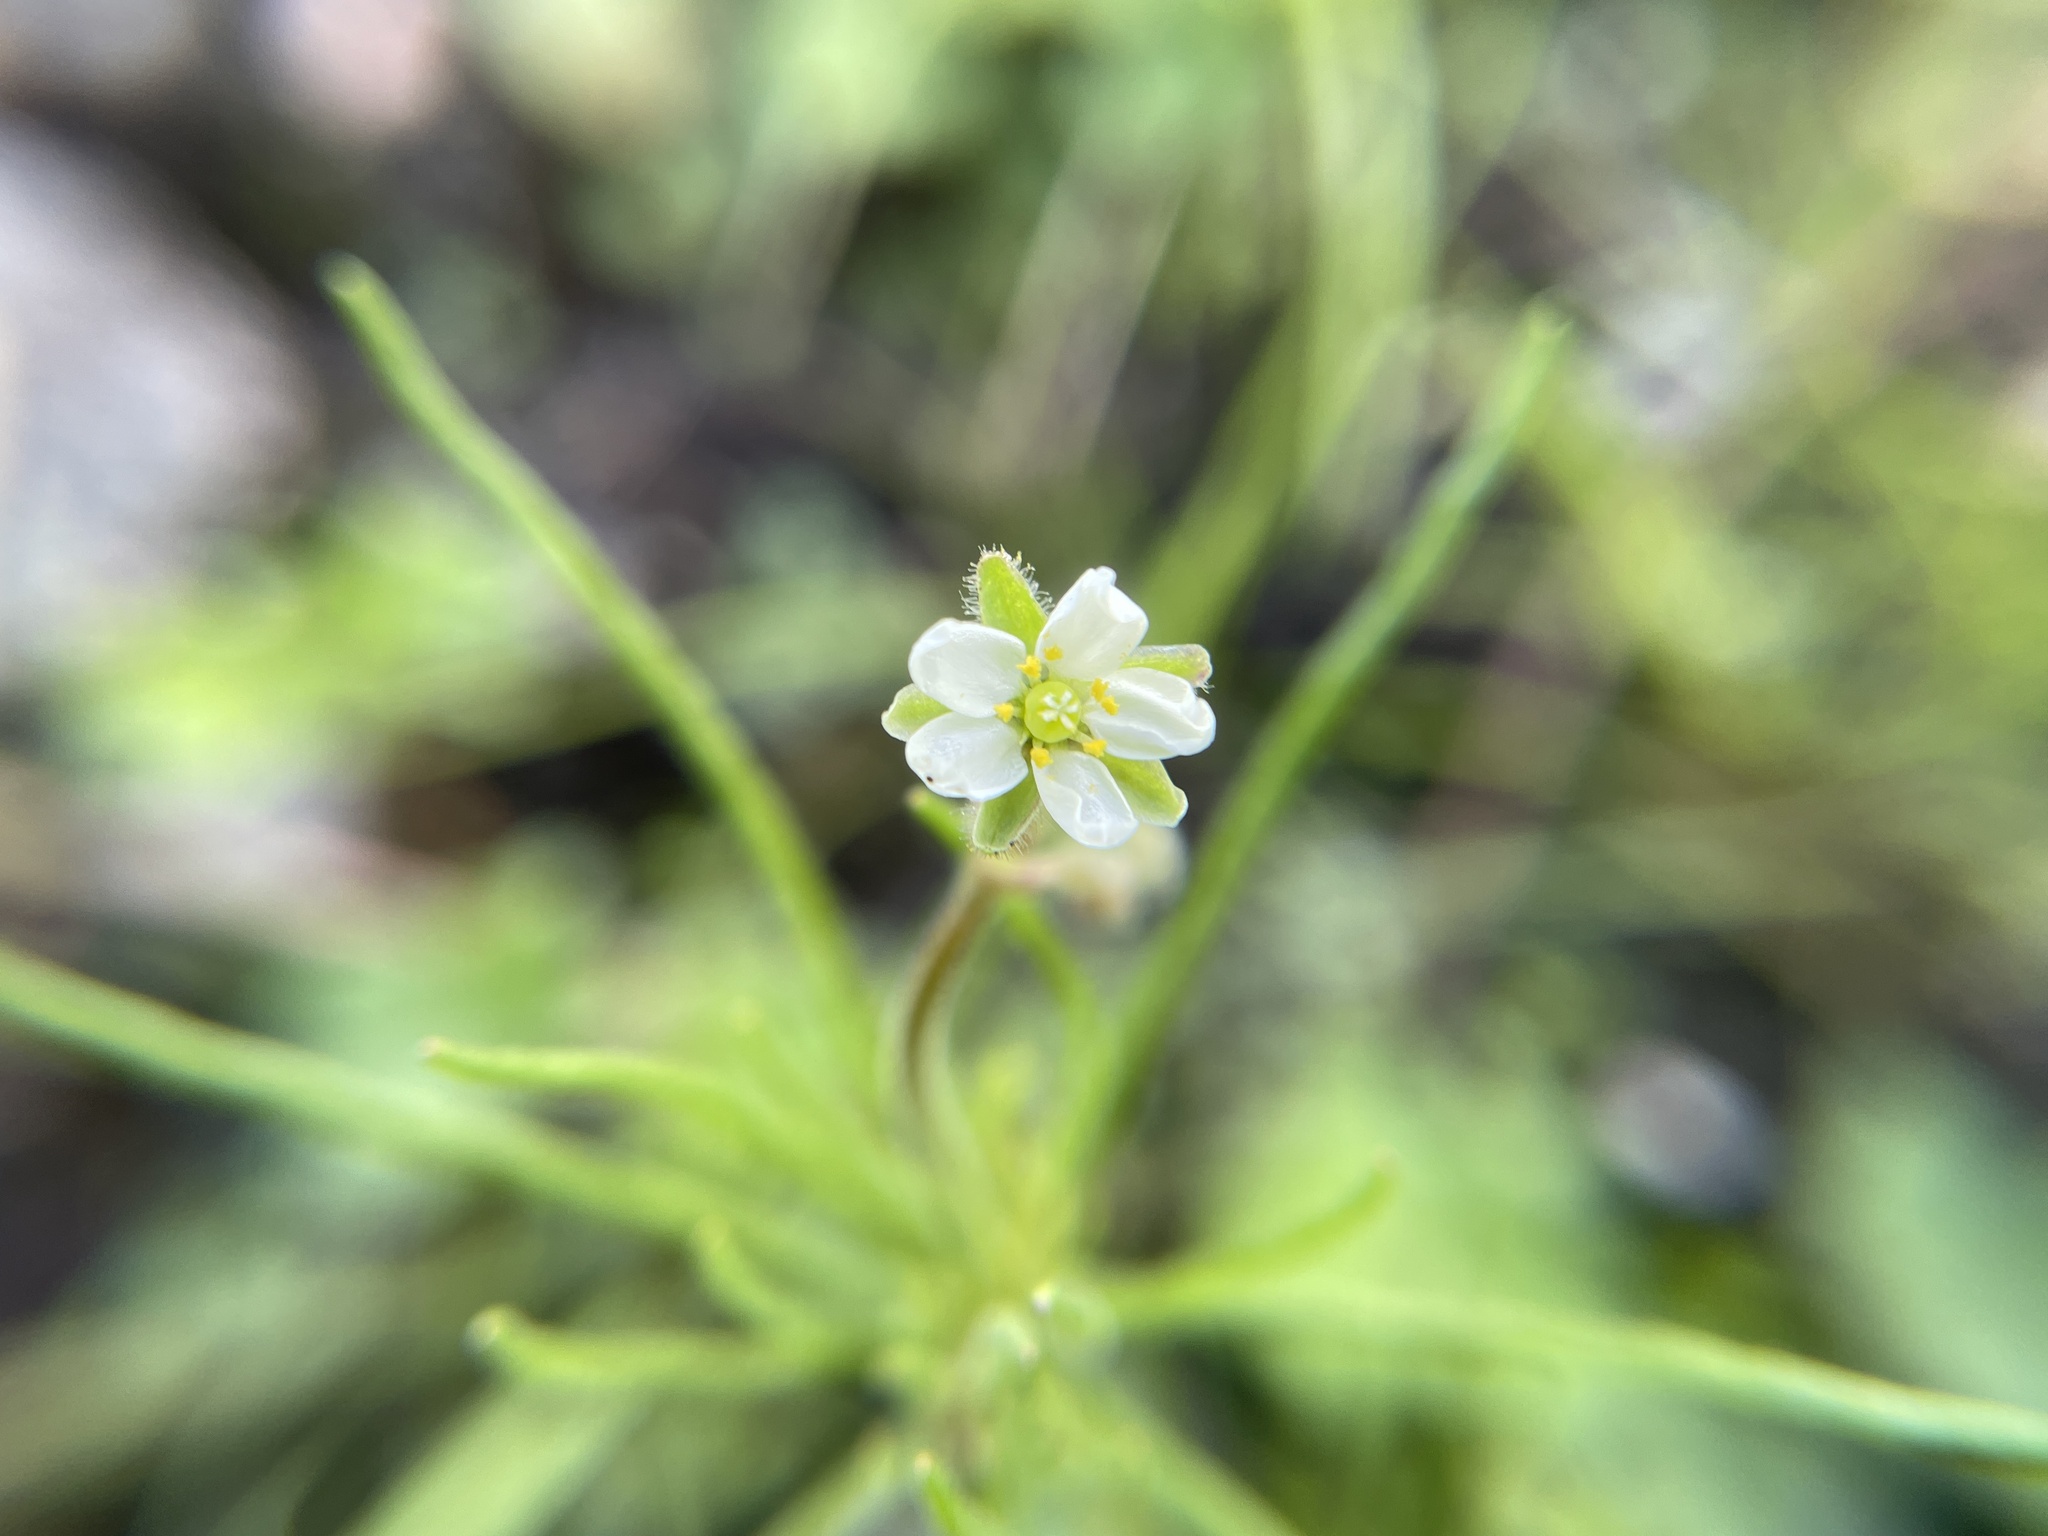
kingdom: Plantae
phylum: Tracheophyta
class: Magnoliopsida
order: Caryophyllales
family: Caryophyllaceae
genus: Spergula
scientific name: Spergula arvensis
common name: Corn spurrey
